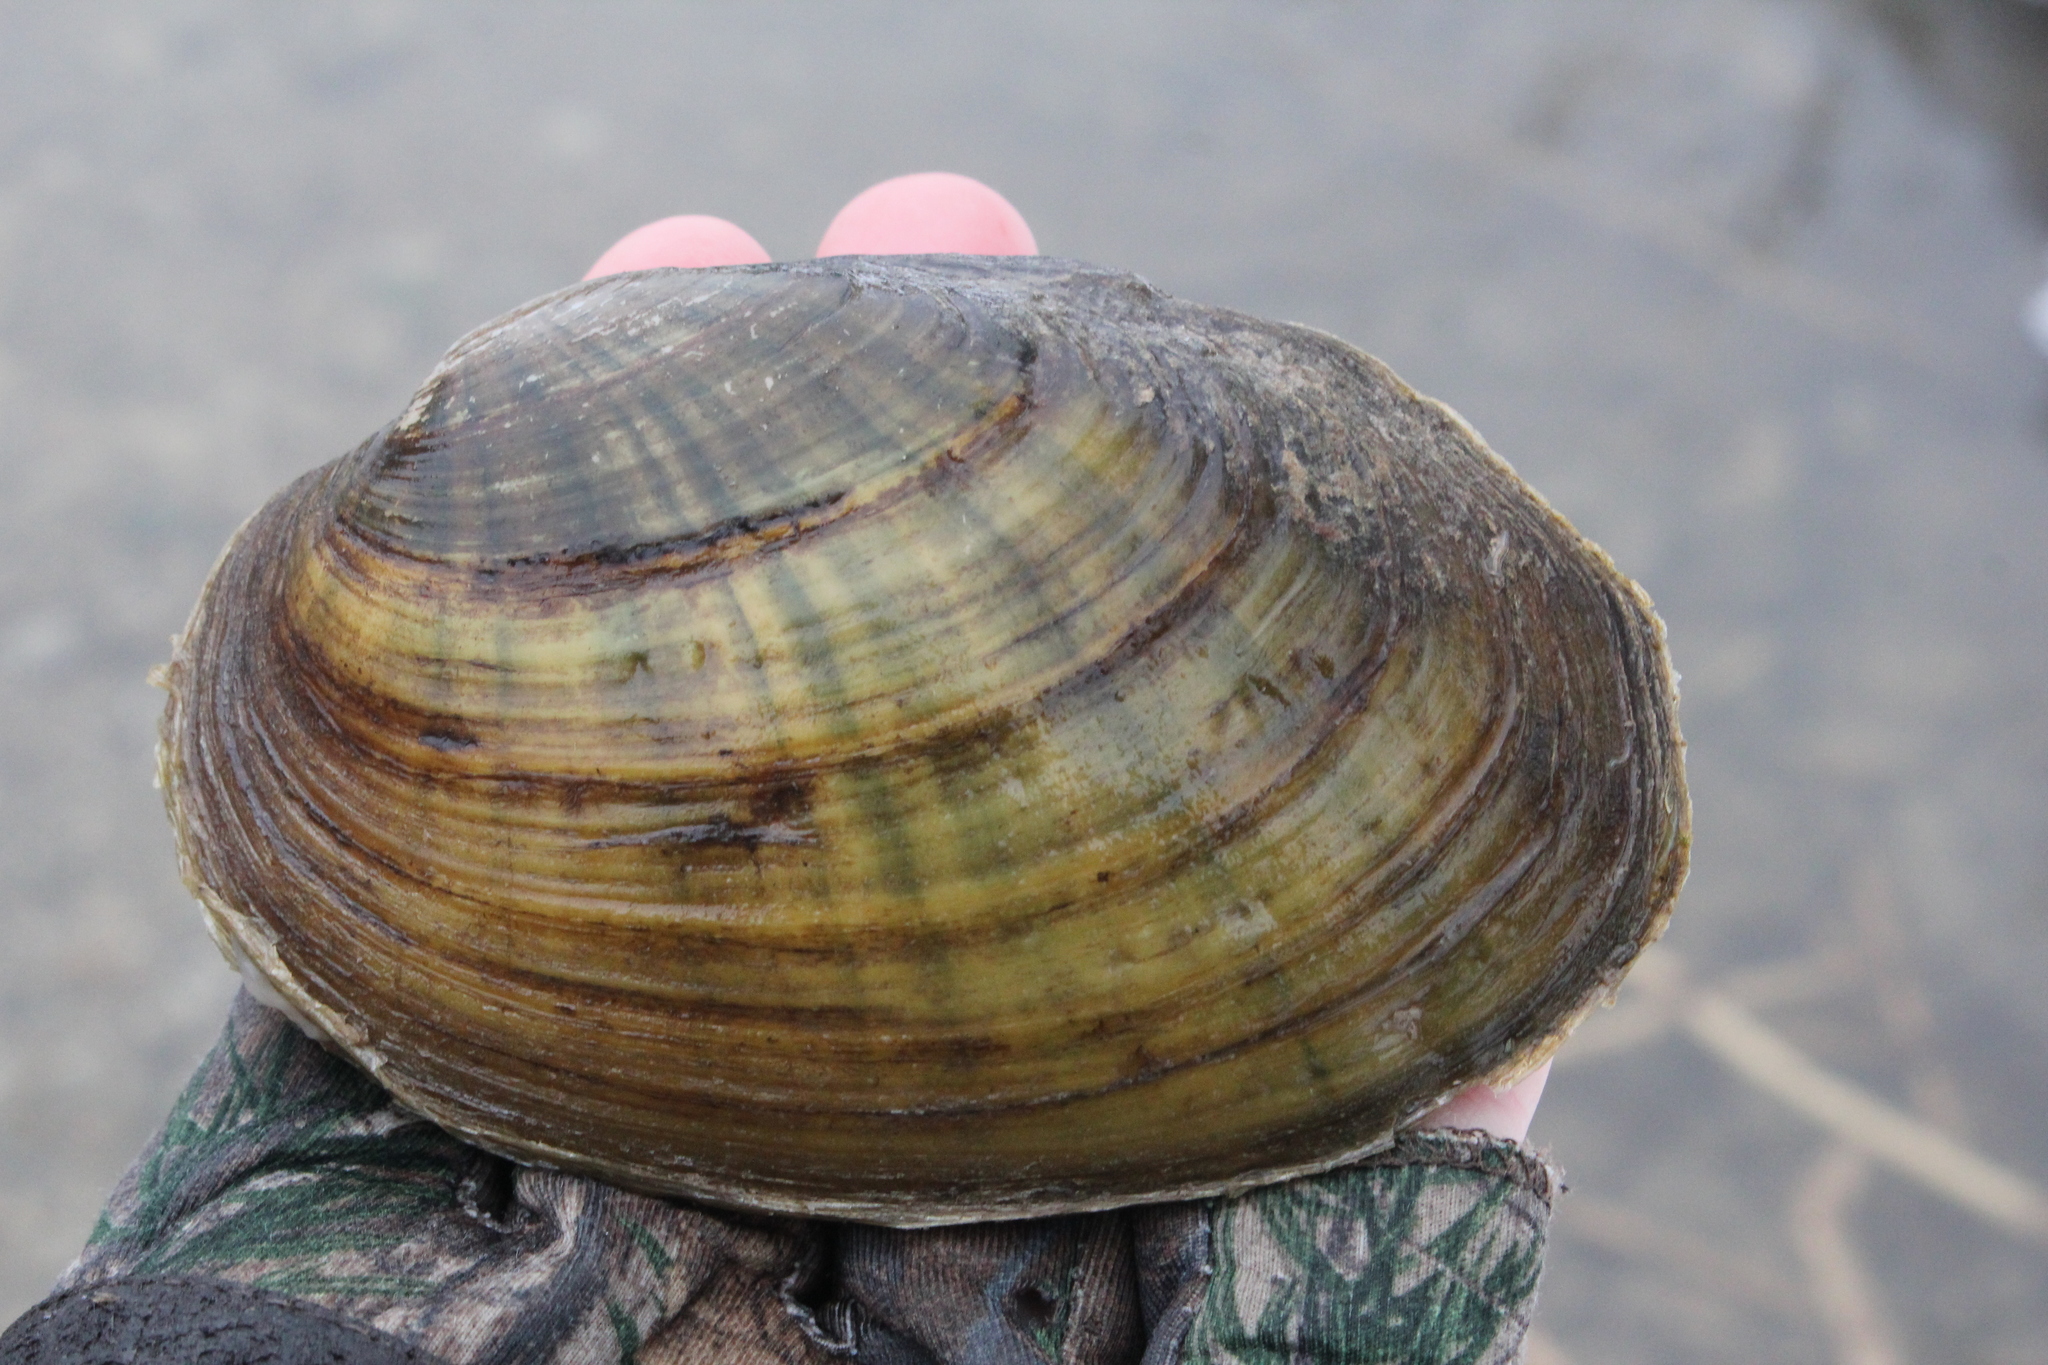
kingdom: Animalia
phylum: Mollusca
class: Bivalvia
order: Unionida
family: Unionidae
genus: Ortmanniana
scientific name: Ortmanniana ligamentina
